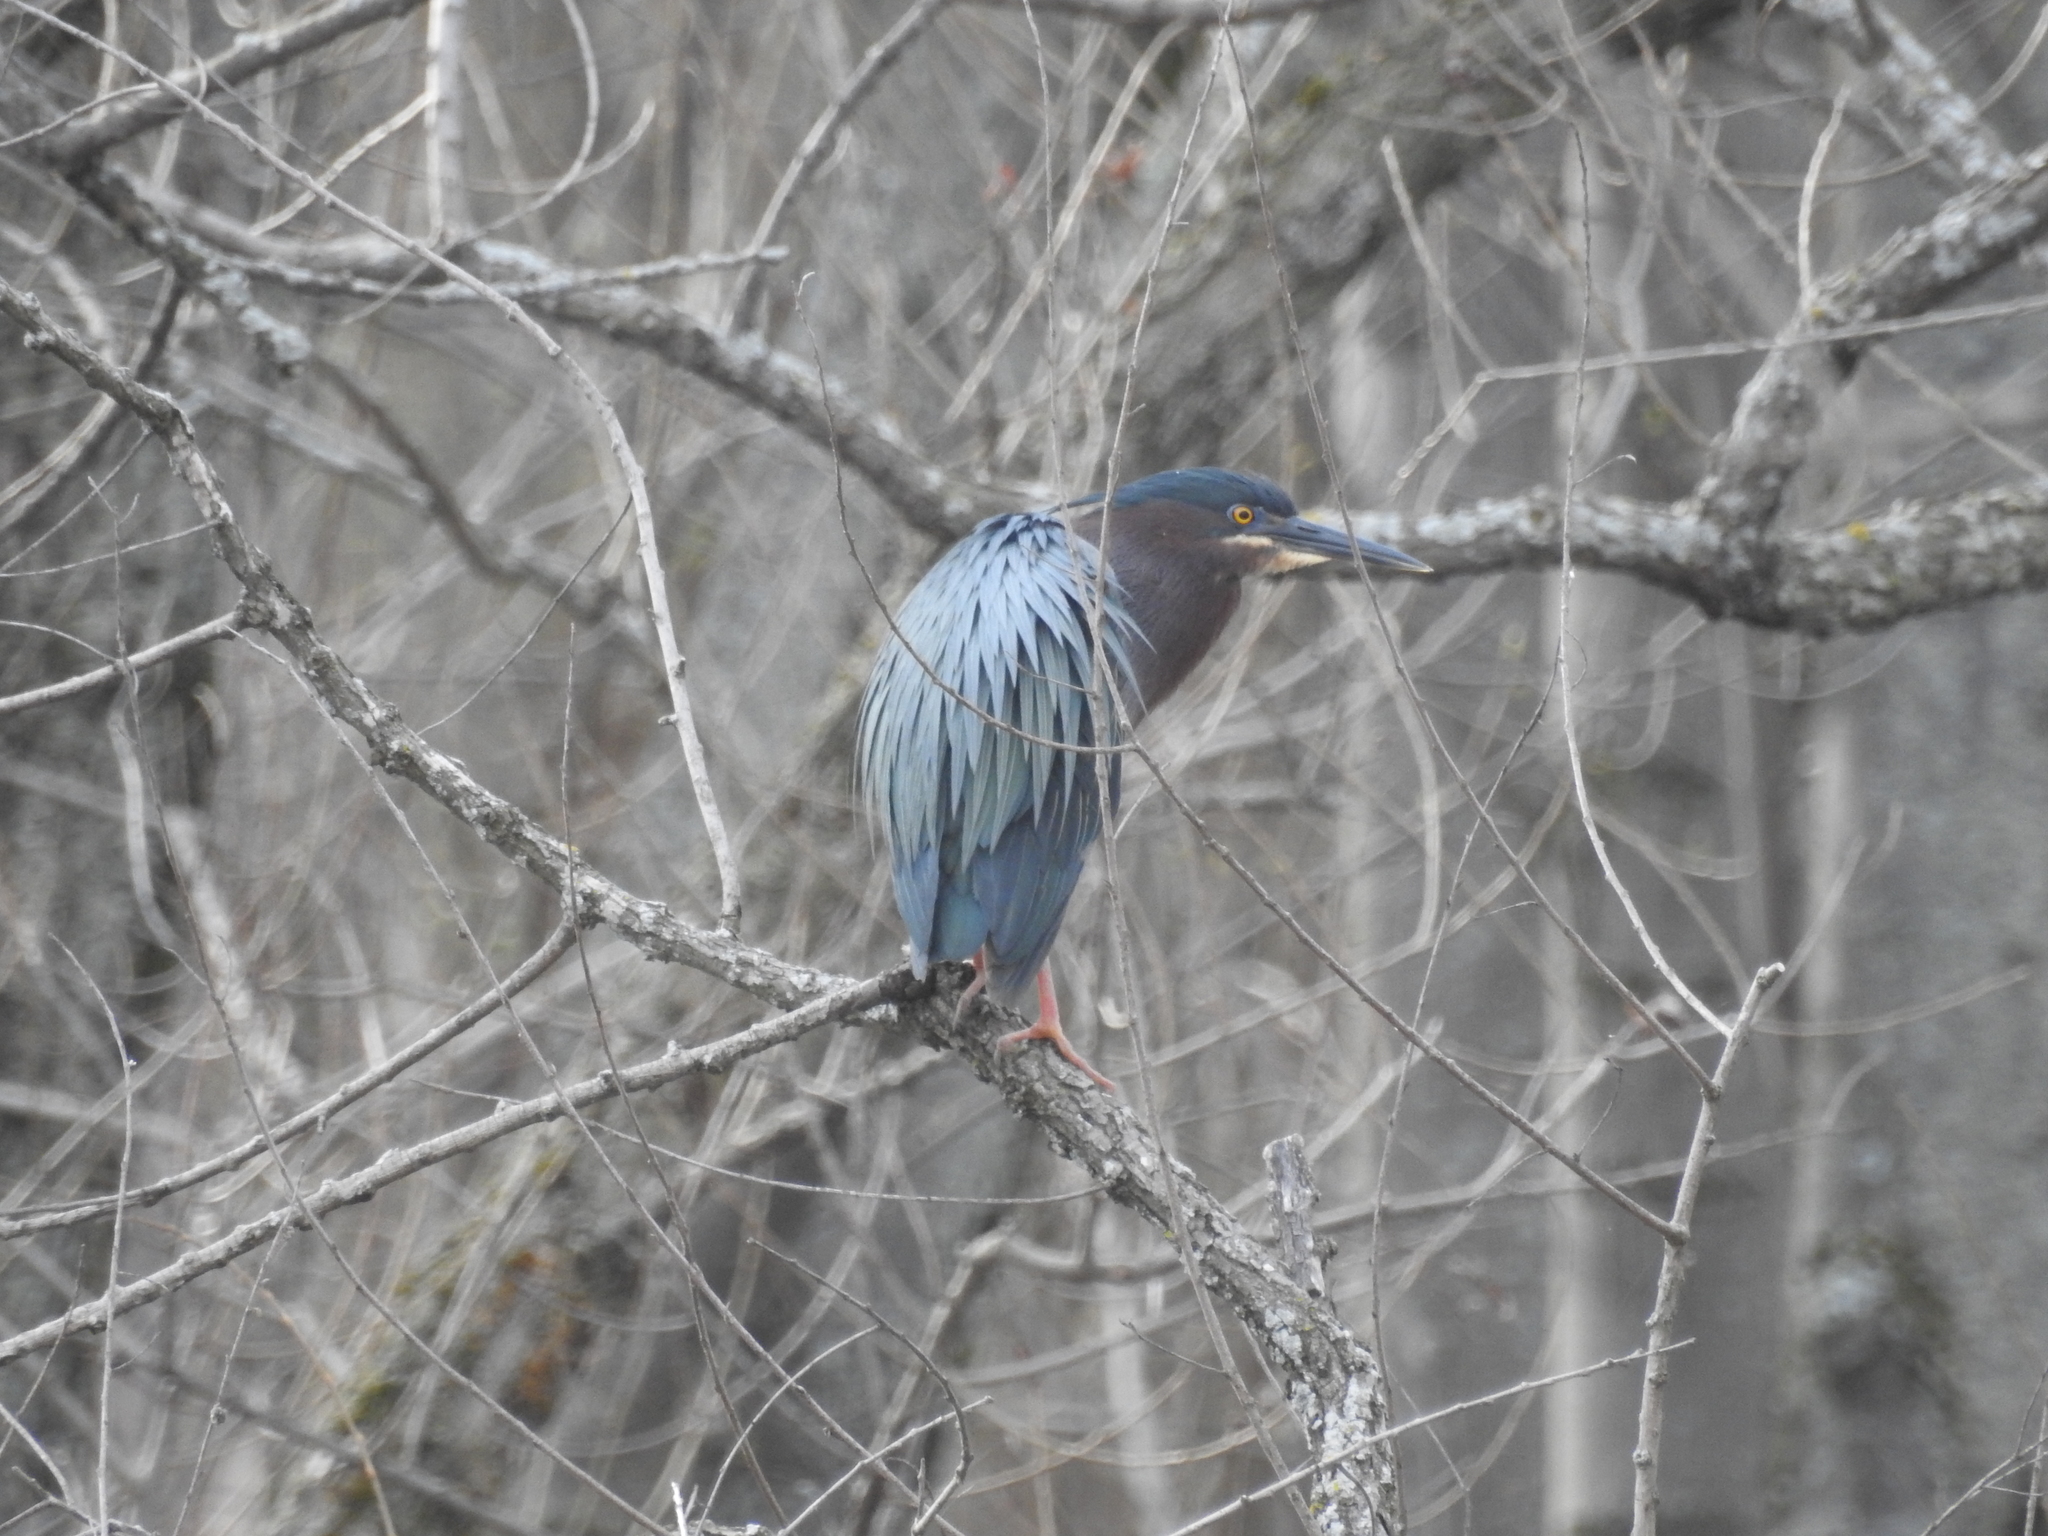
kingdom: Animalia
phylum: Chordata
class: Aves
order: Pelecaniformes
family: Ardeidae
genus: Butorides
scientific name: Butorides virescens
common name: Green heron
